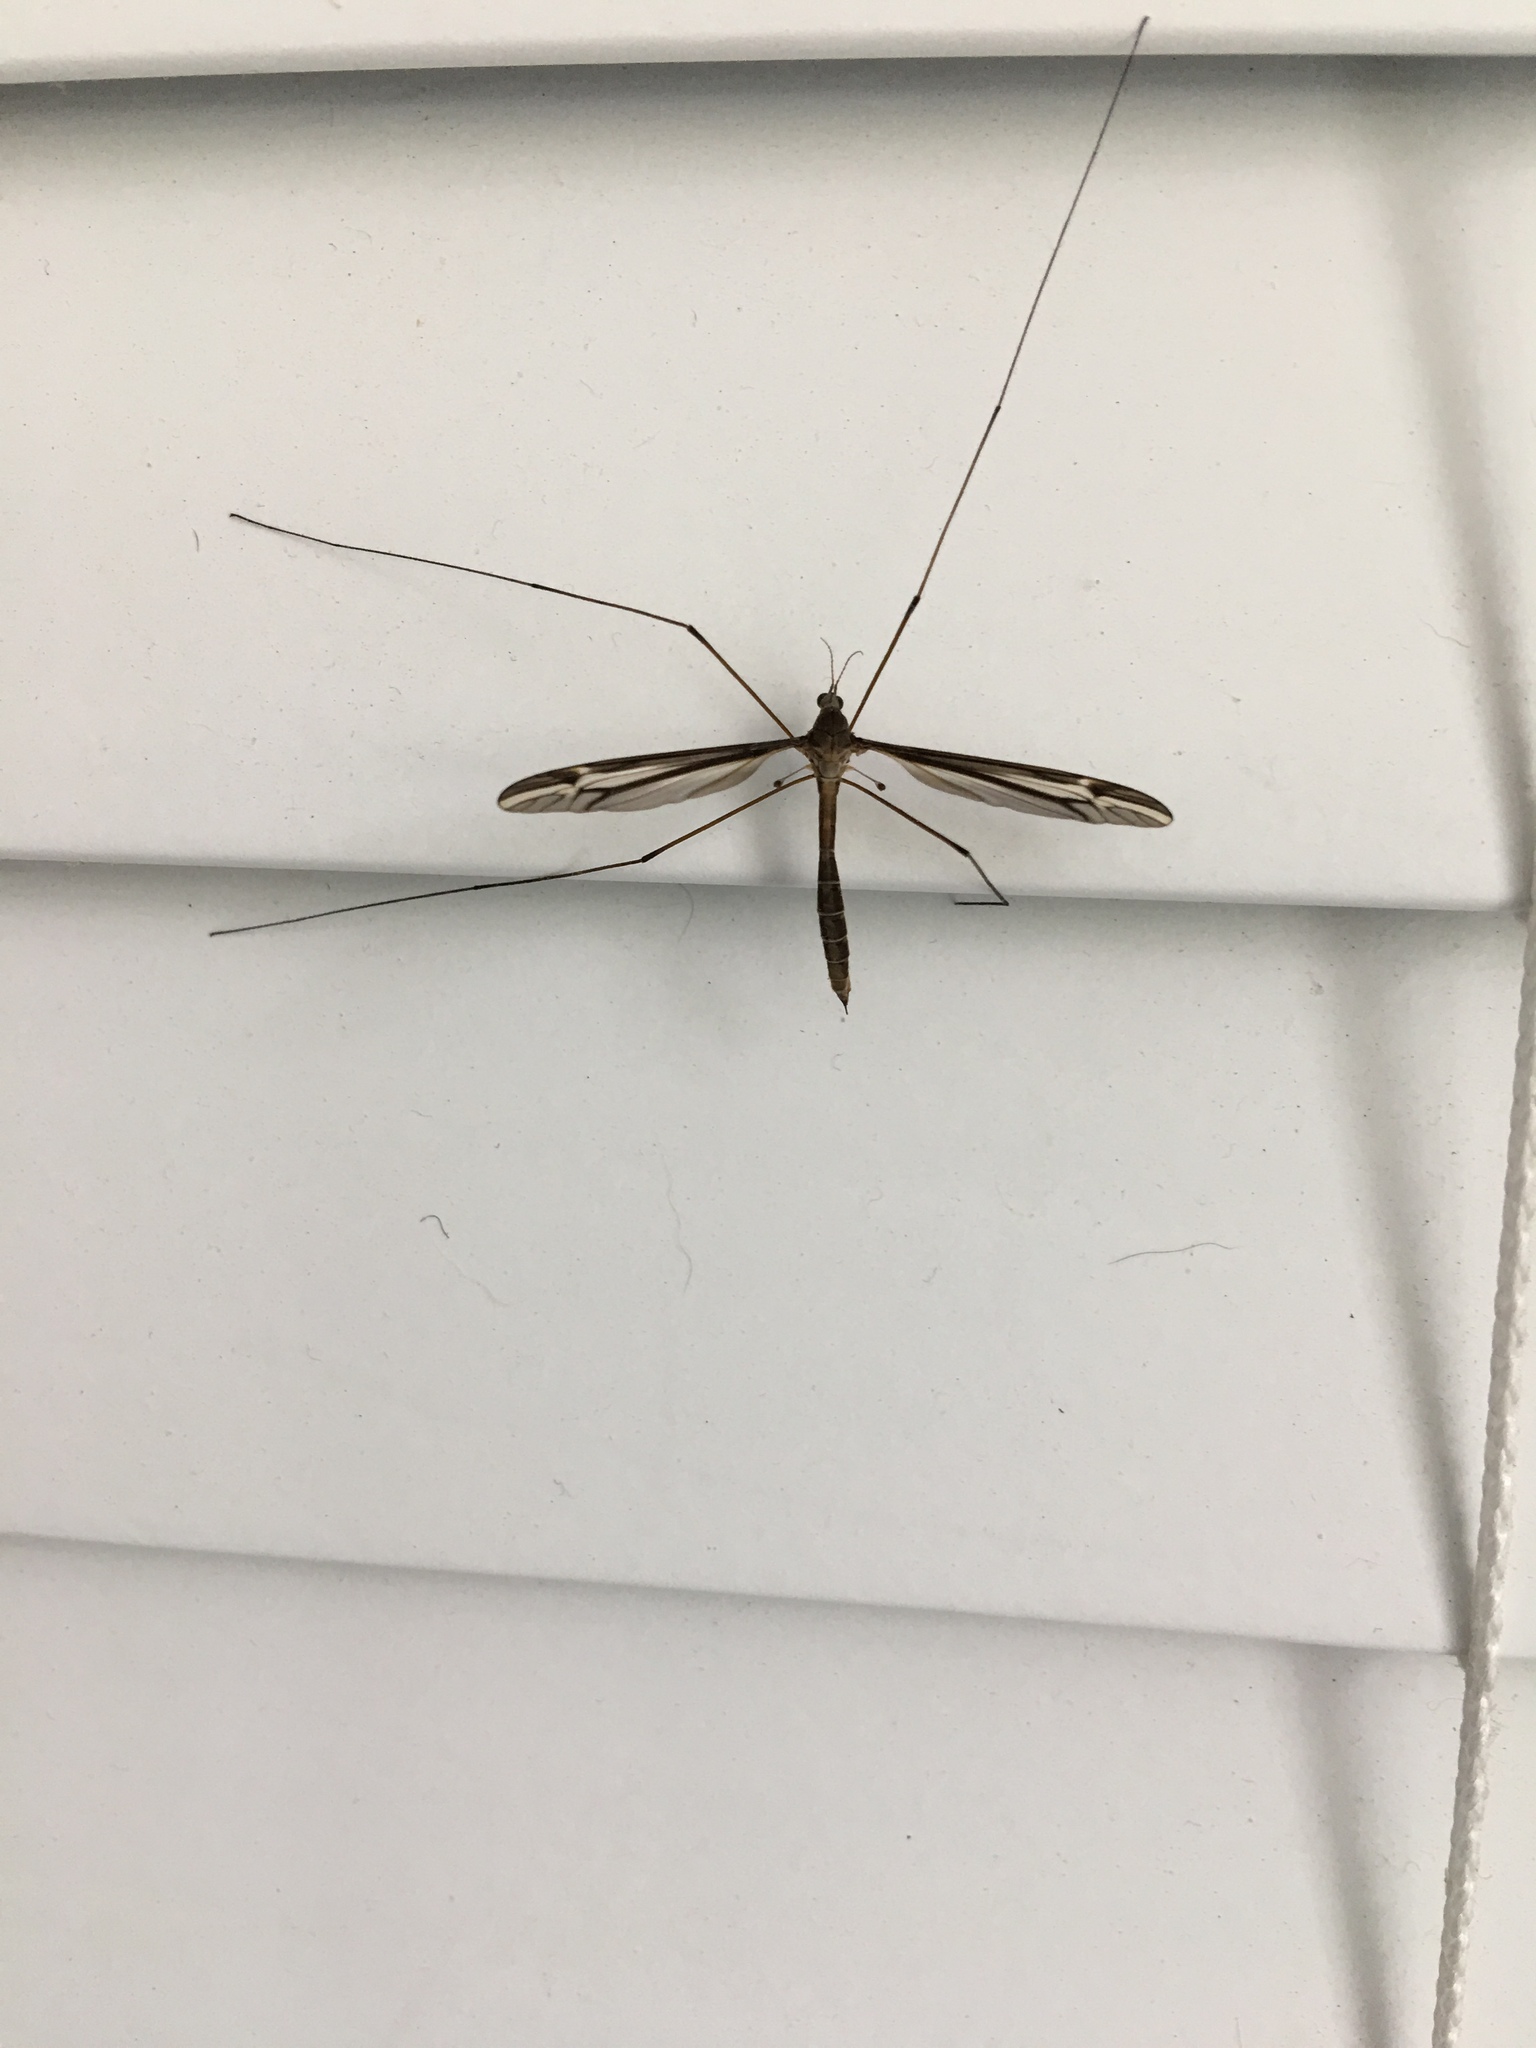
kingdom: Animalia
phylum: Arthropoda
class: Insecta
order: Diptera
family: Tipulidae
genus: Tipula
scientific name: Tipula furca
